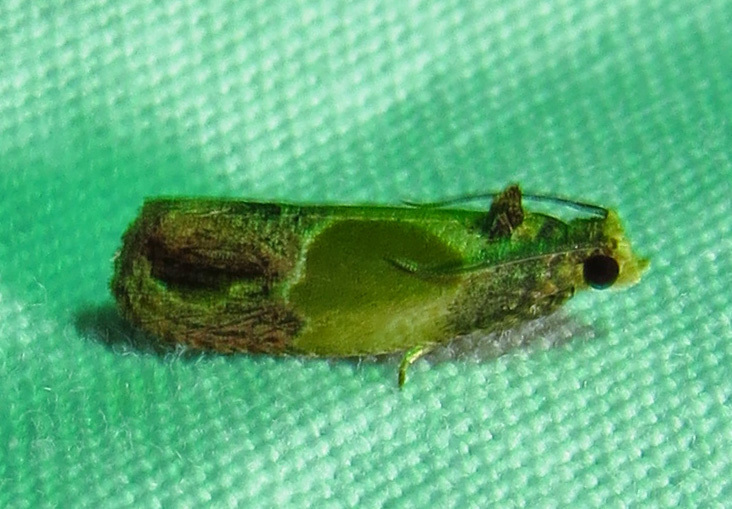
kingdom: Animalia
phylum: Arthropoda
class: Insecta
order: Lepidoptera
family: Tortricidae
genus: Eumarozia
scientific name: Eumarozia malachitana
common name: Sculptured moth
